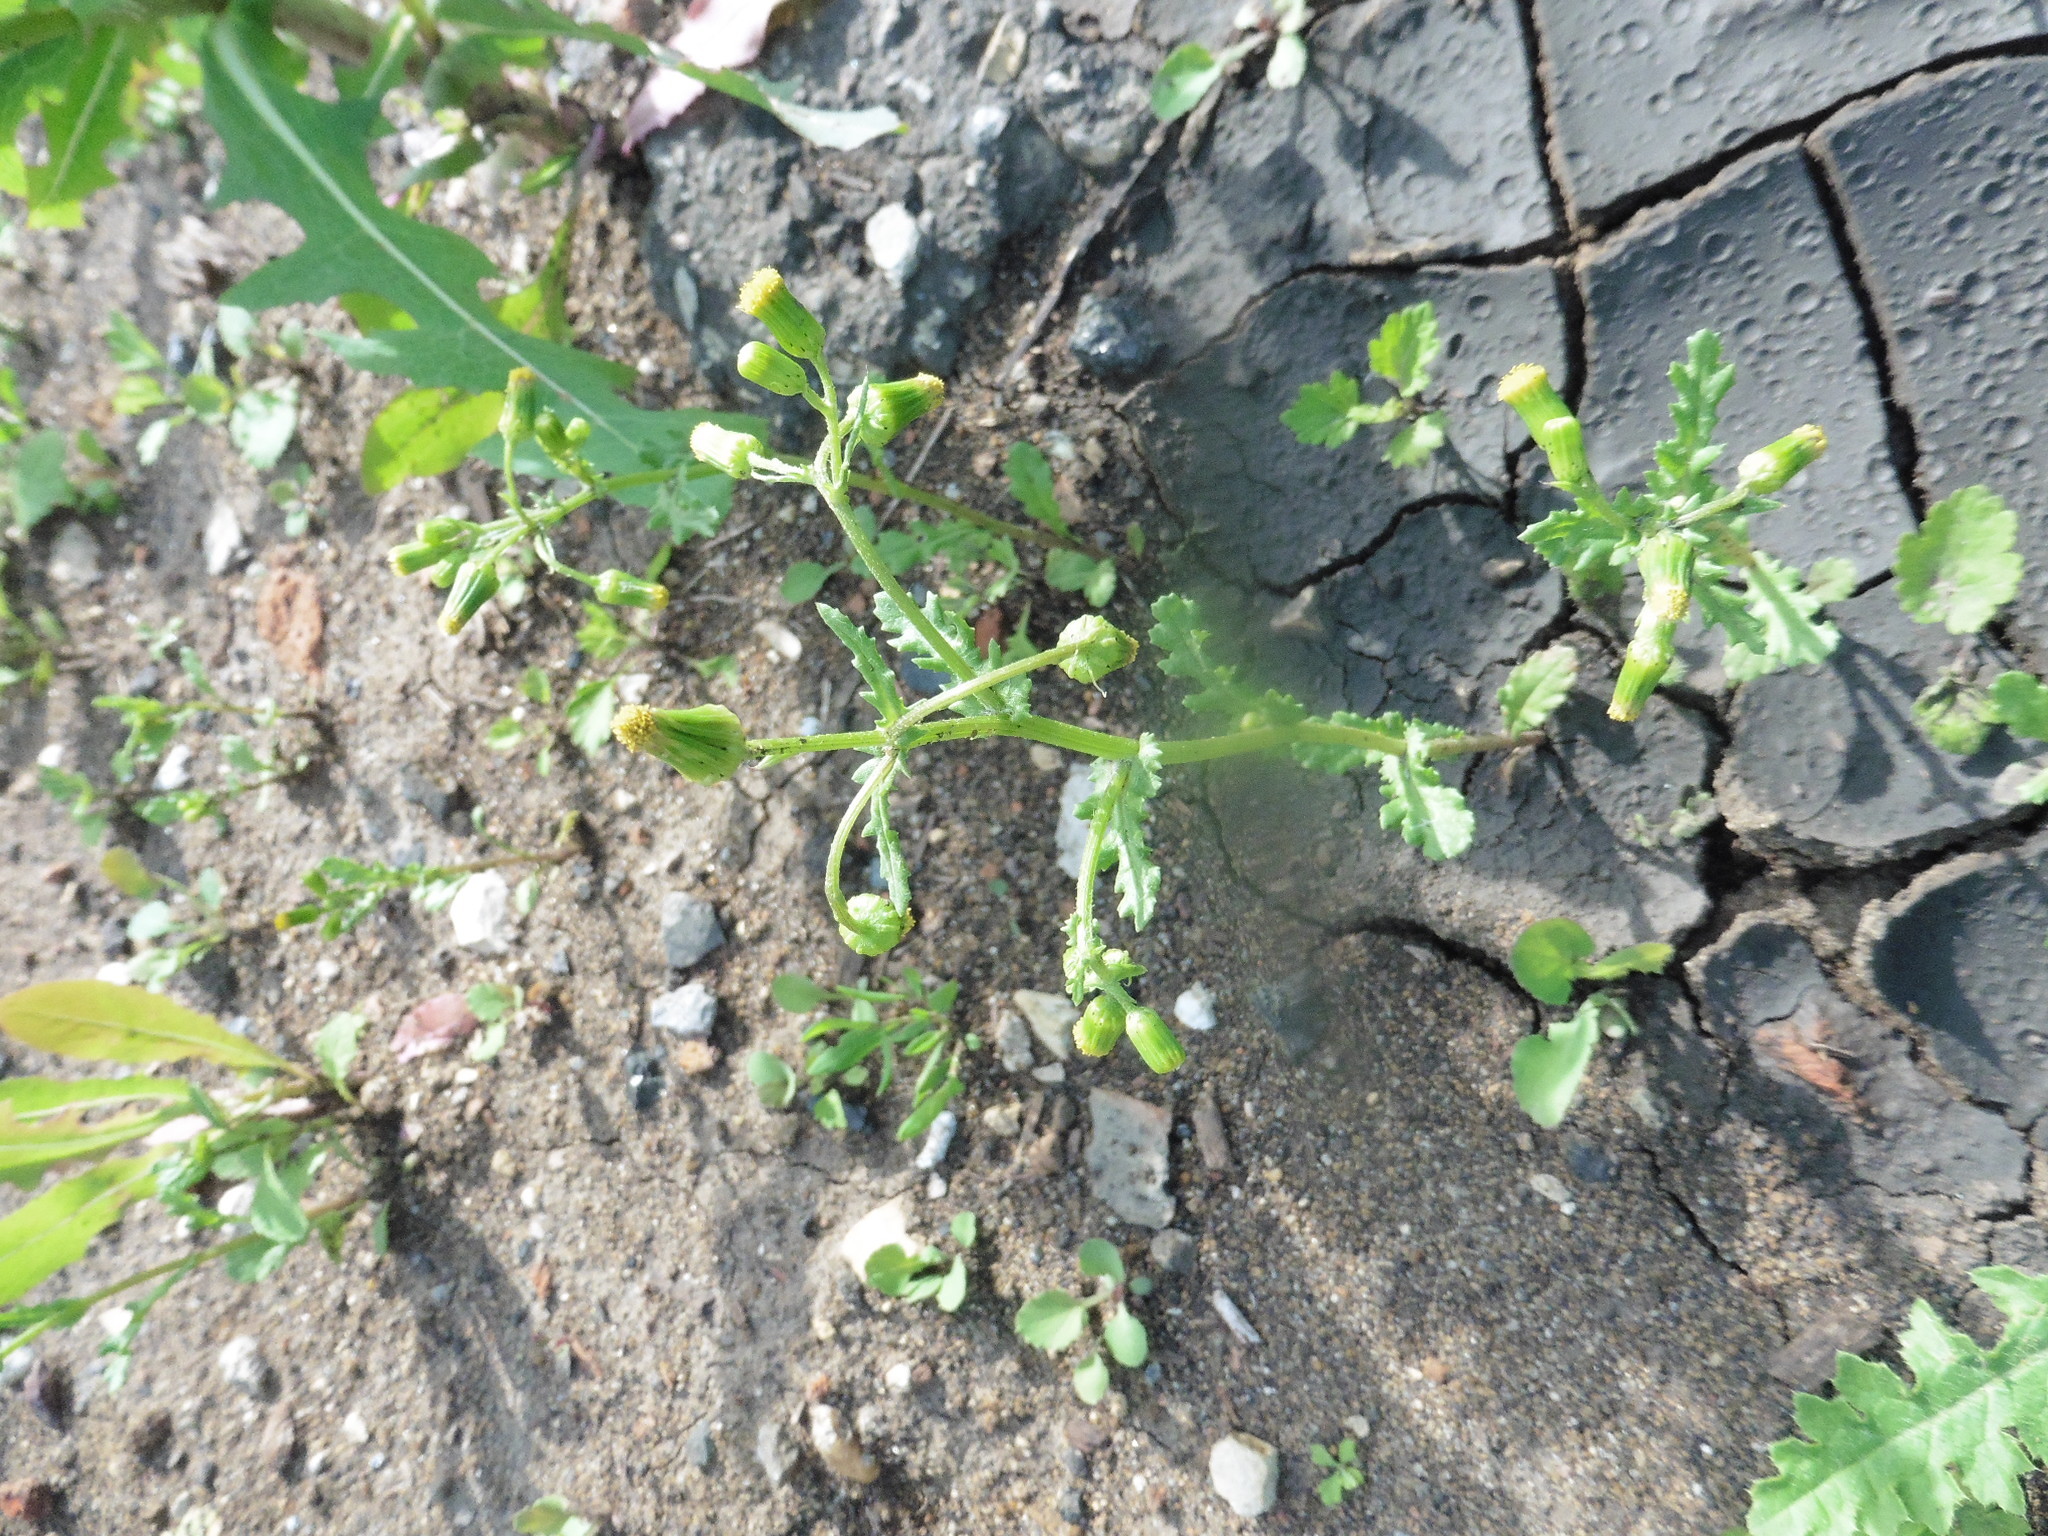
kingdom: Plantae
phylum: Tracheophyta
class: Magnoliopsida
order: Asterales
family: Asteraceae
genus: Senecio
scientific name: Senecio vulgaris
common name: Old-man-in-the-spring
